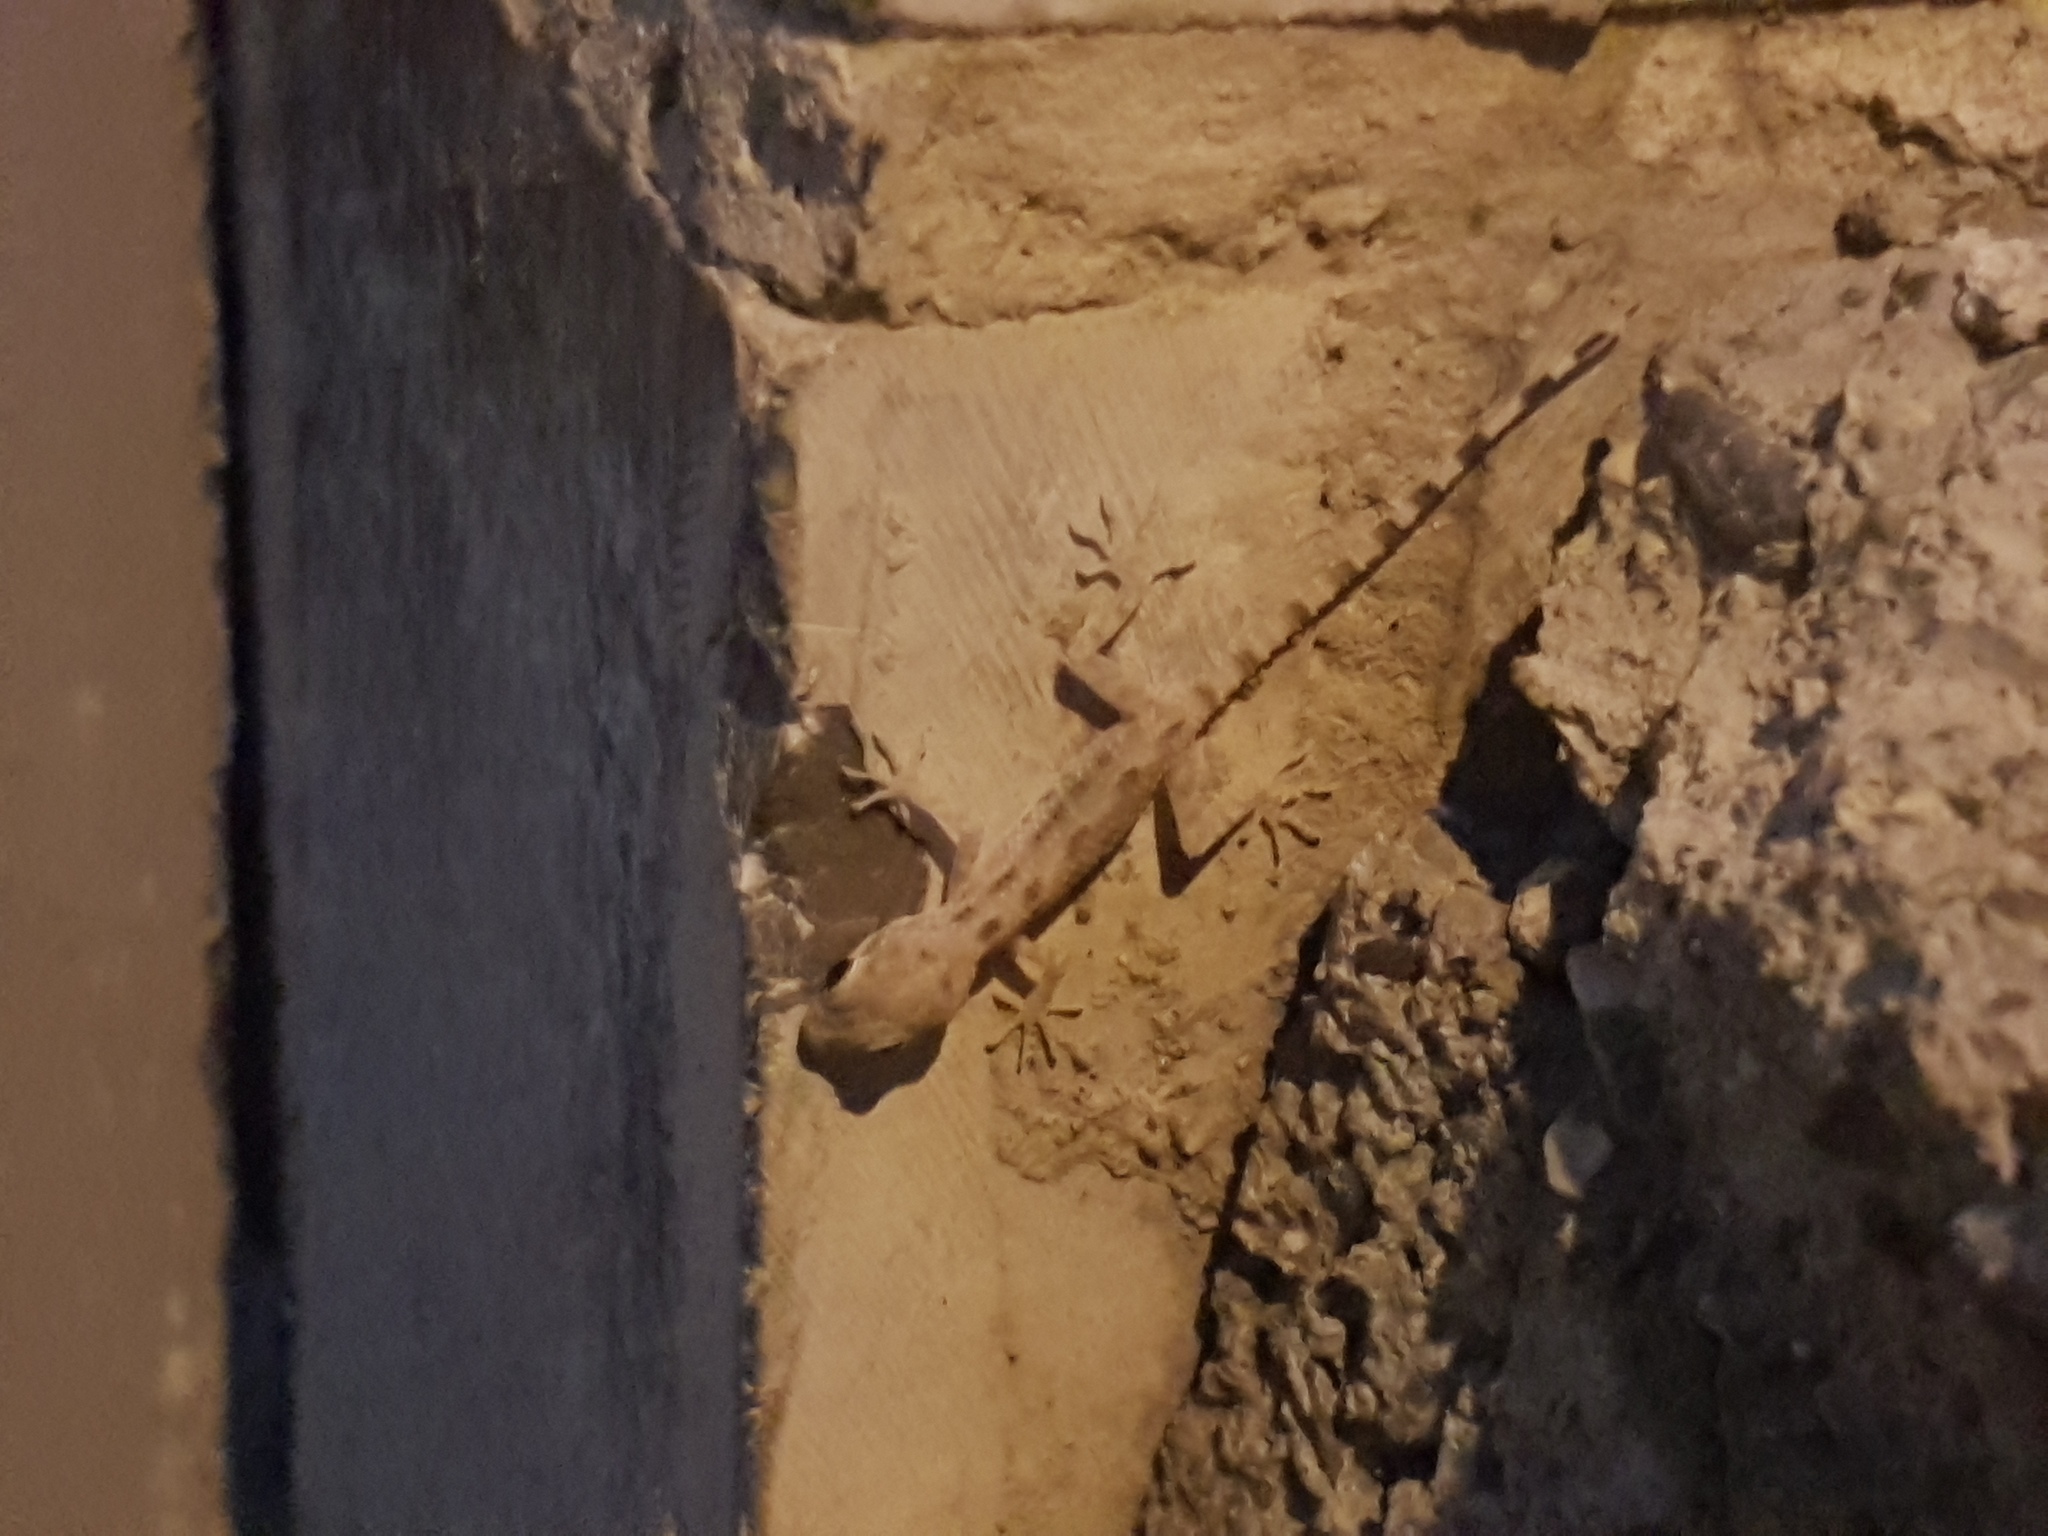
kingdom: Animalia
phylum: Chordata
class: Squamata
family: Gekkonidae
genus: Cyrtopodion
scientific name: Cyrtopodion scabrum
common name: Rough-tailed gecko
